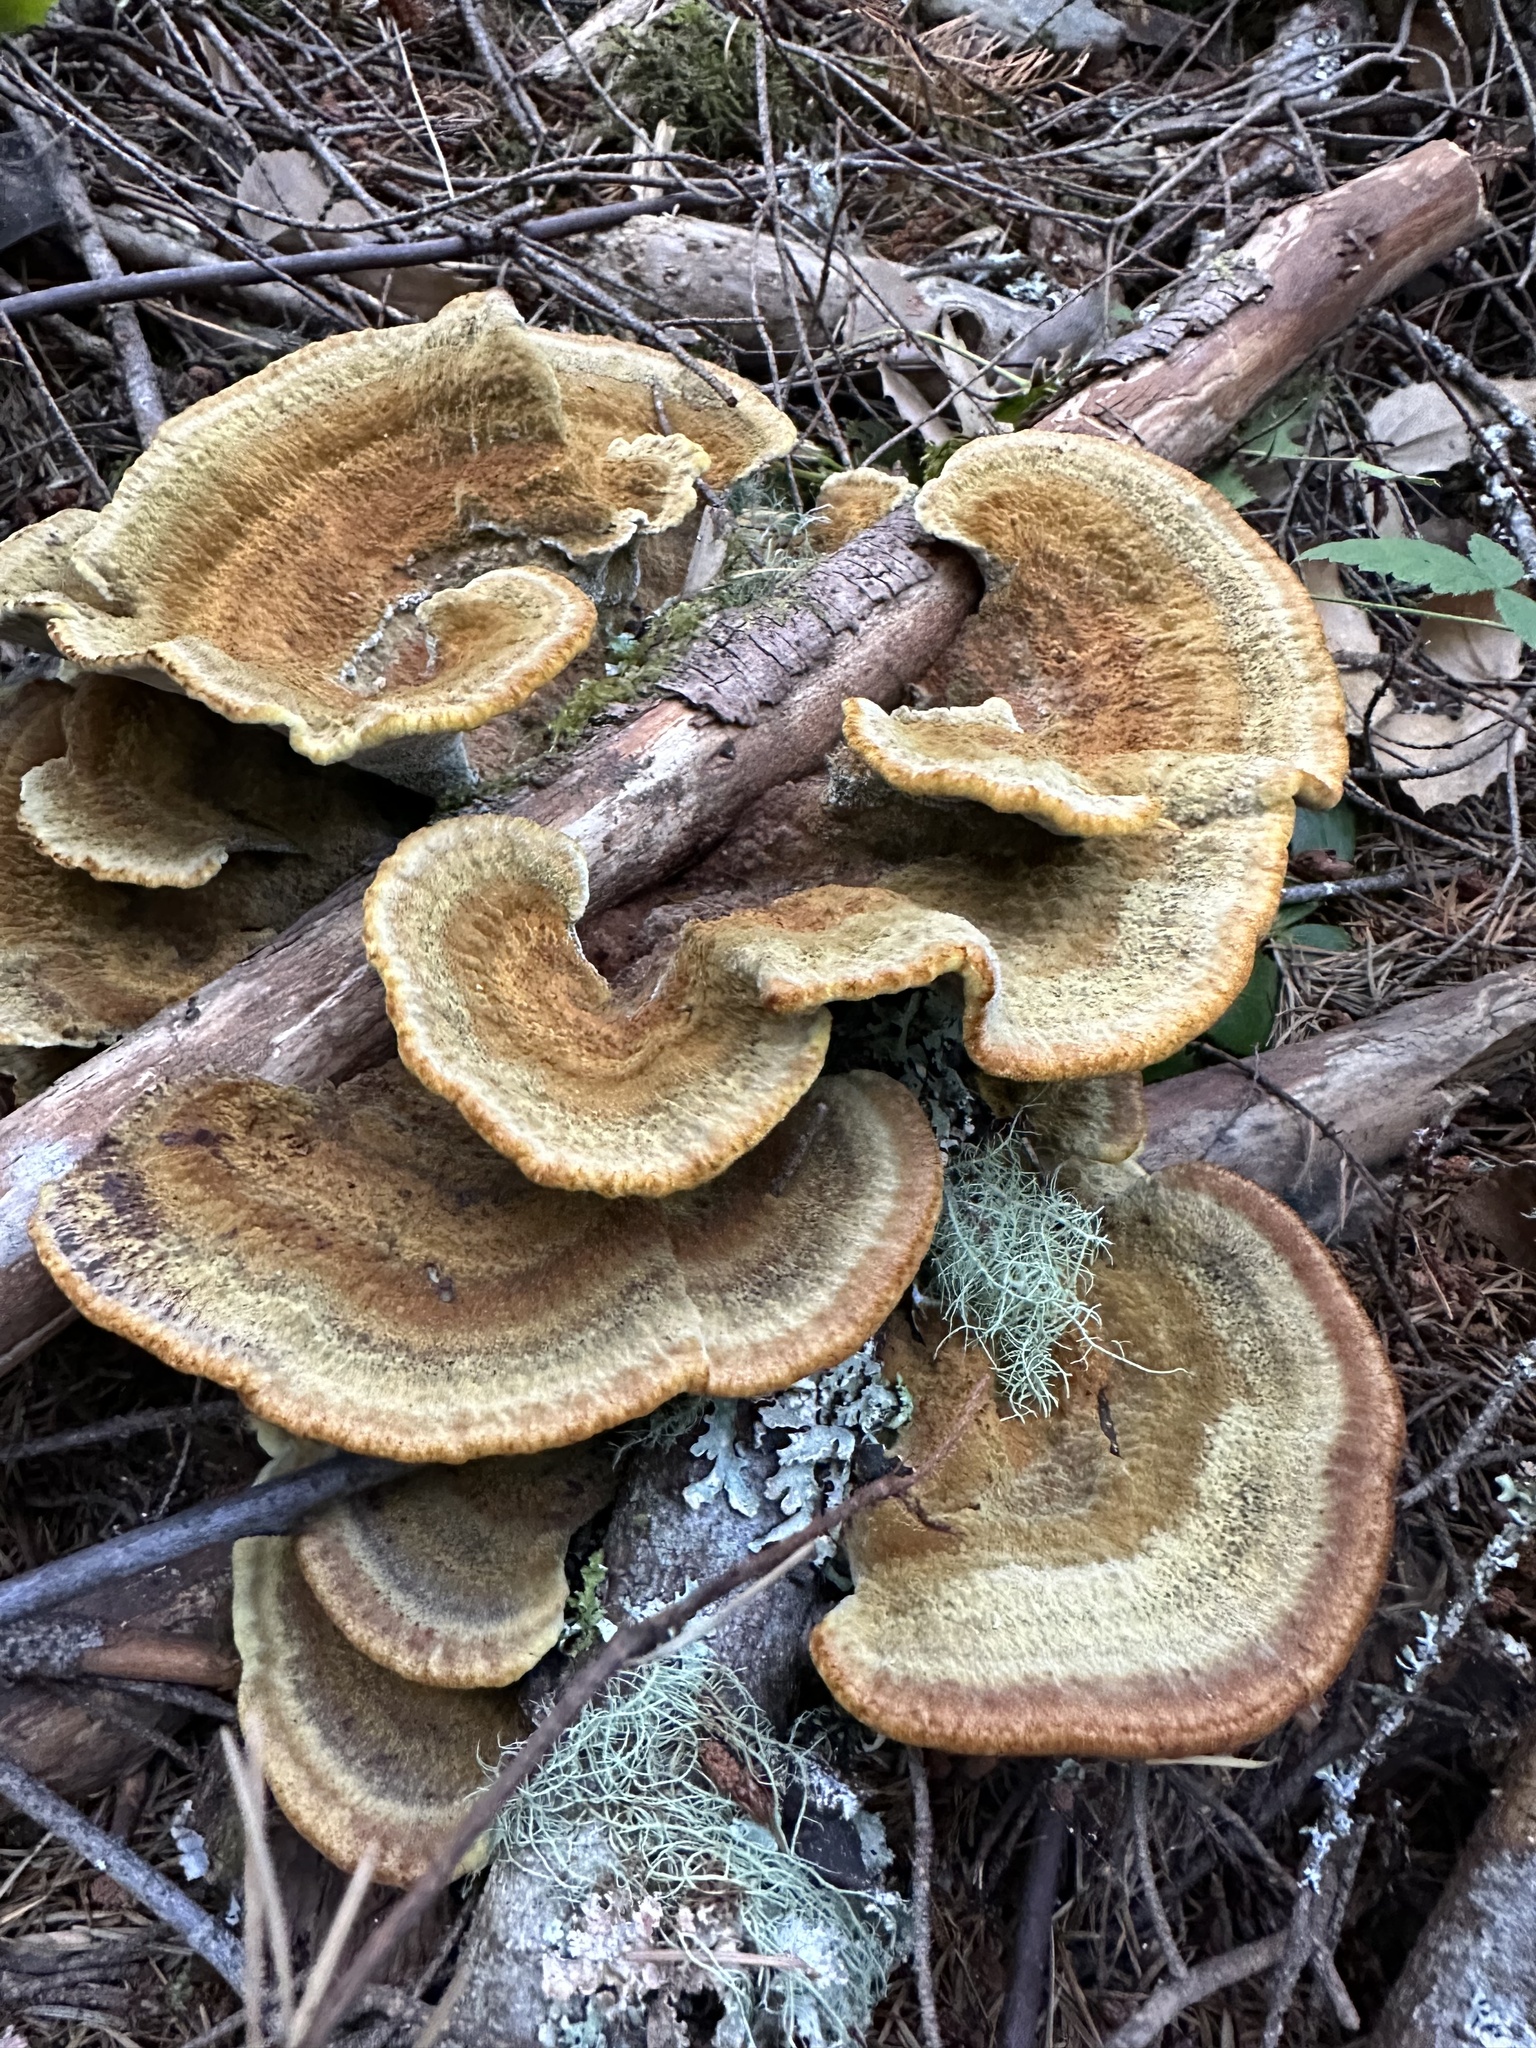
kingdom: Fungi
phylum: Basidiomycota
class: Agaricomycetes
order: Polyporales
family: Laetiporaceae
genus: Phaeolus
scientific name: Phaeolus schweinitzii
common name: Dyer's mazegill
